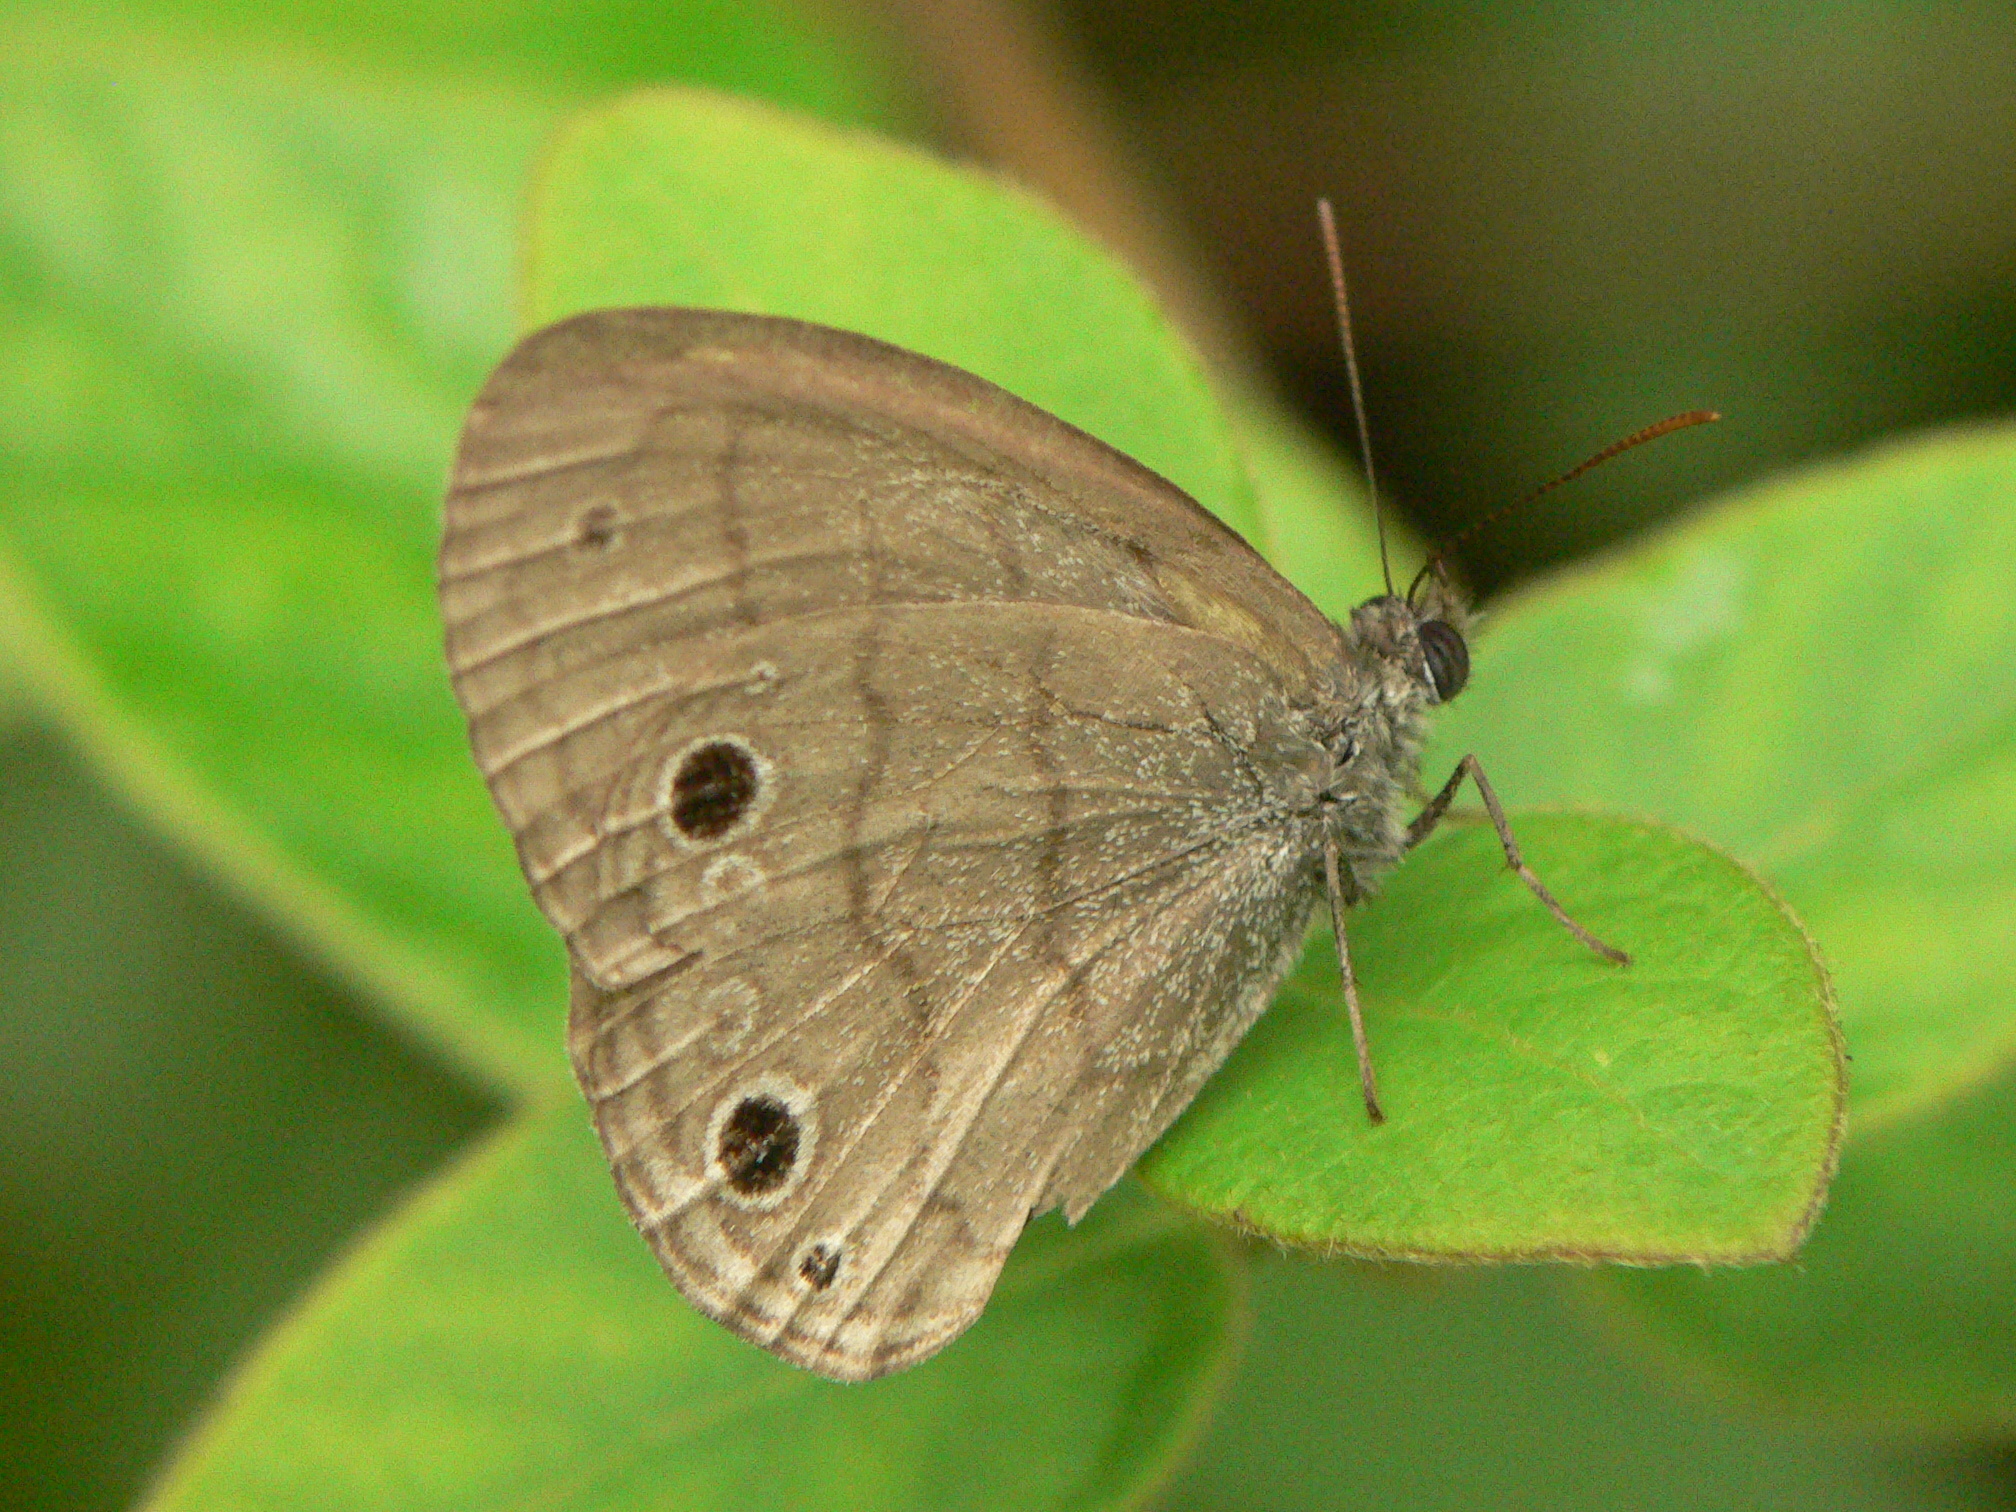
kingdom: Animalia
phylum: Arthropoda
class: Insecta
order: Lepidoptera
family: Nymphalidae
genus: Hermeuptychia
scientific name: Hermeuptychia hermes
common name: Hermes satyr
